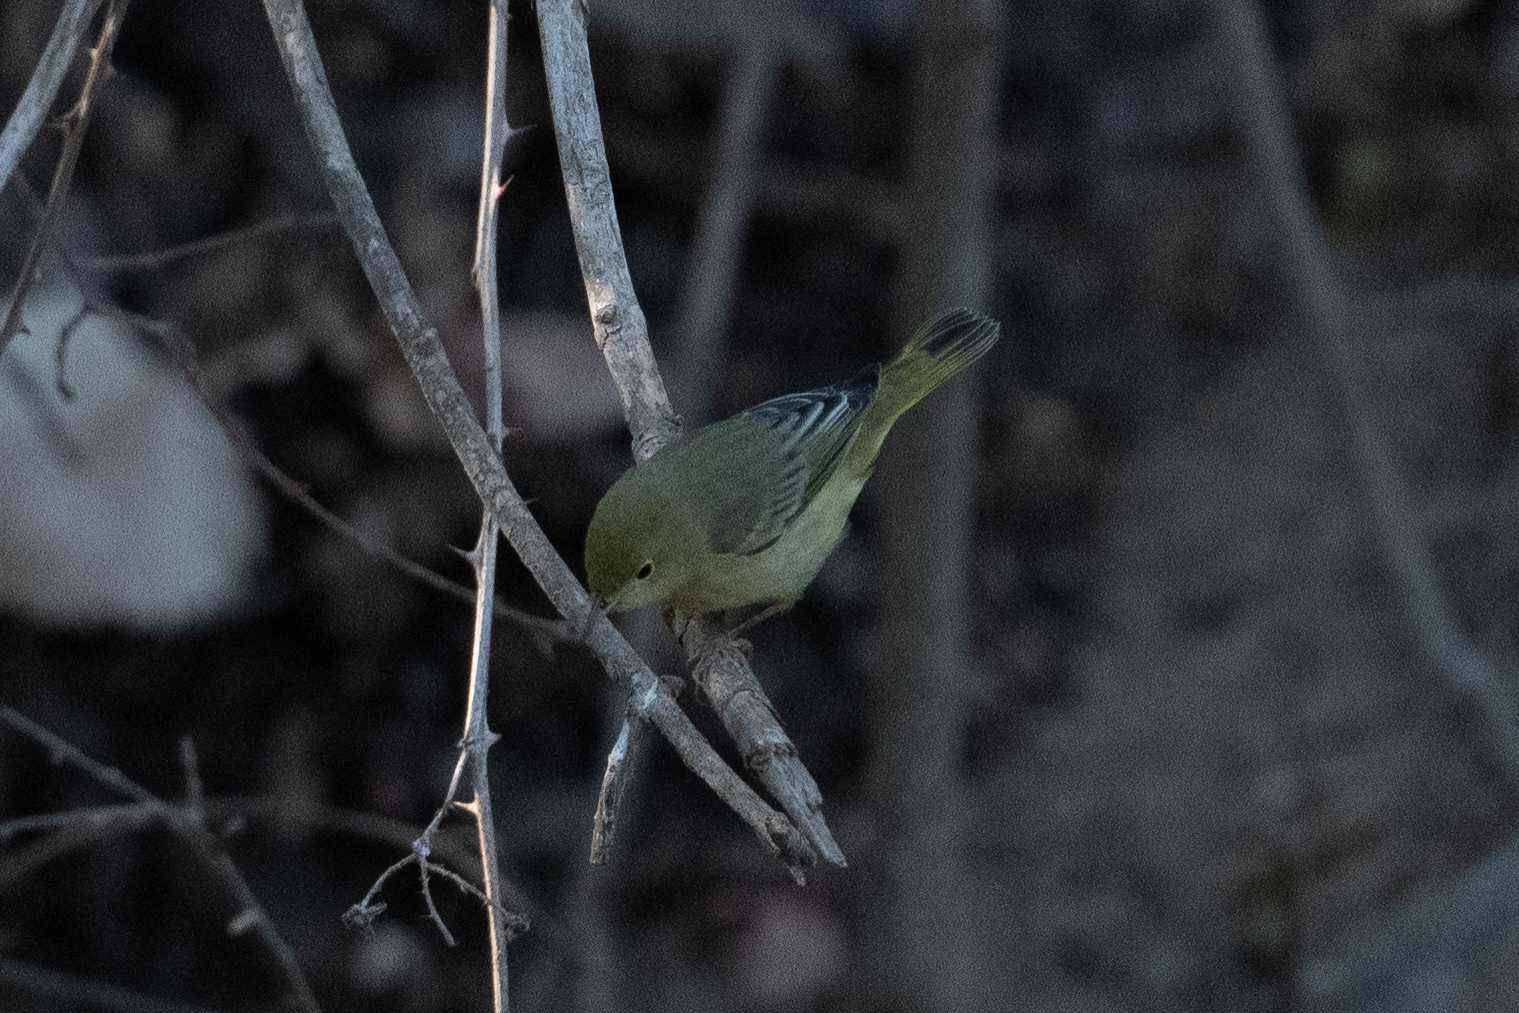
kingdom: Animalia
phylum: Chordata
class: Aves
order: Passeriformes
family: Parulidae
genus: Setophaga
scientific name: Setophaga petechia
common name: Yellow warbler
